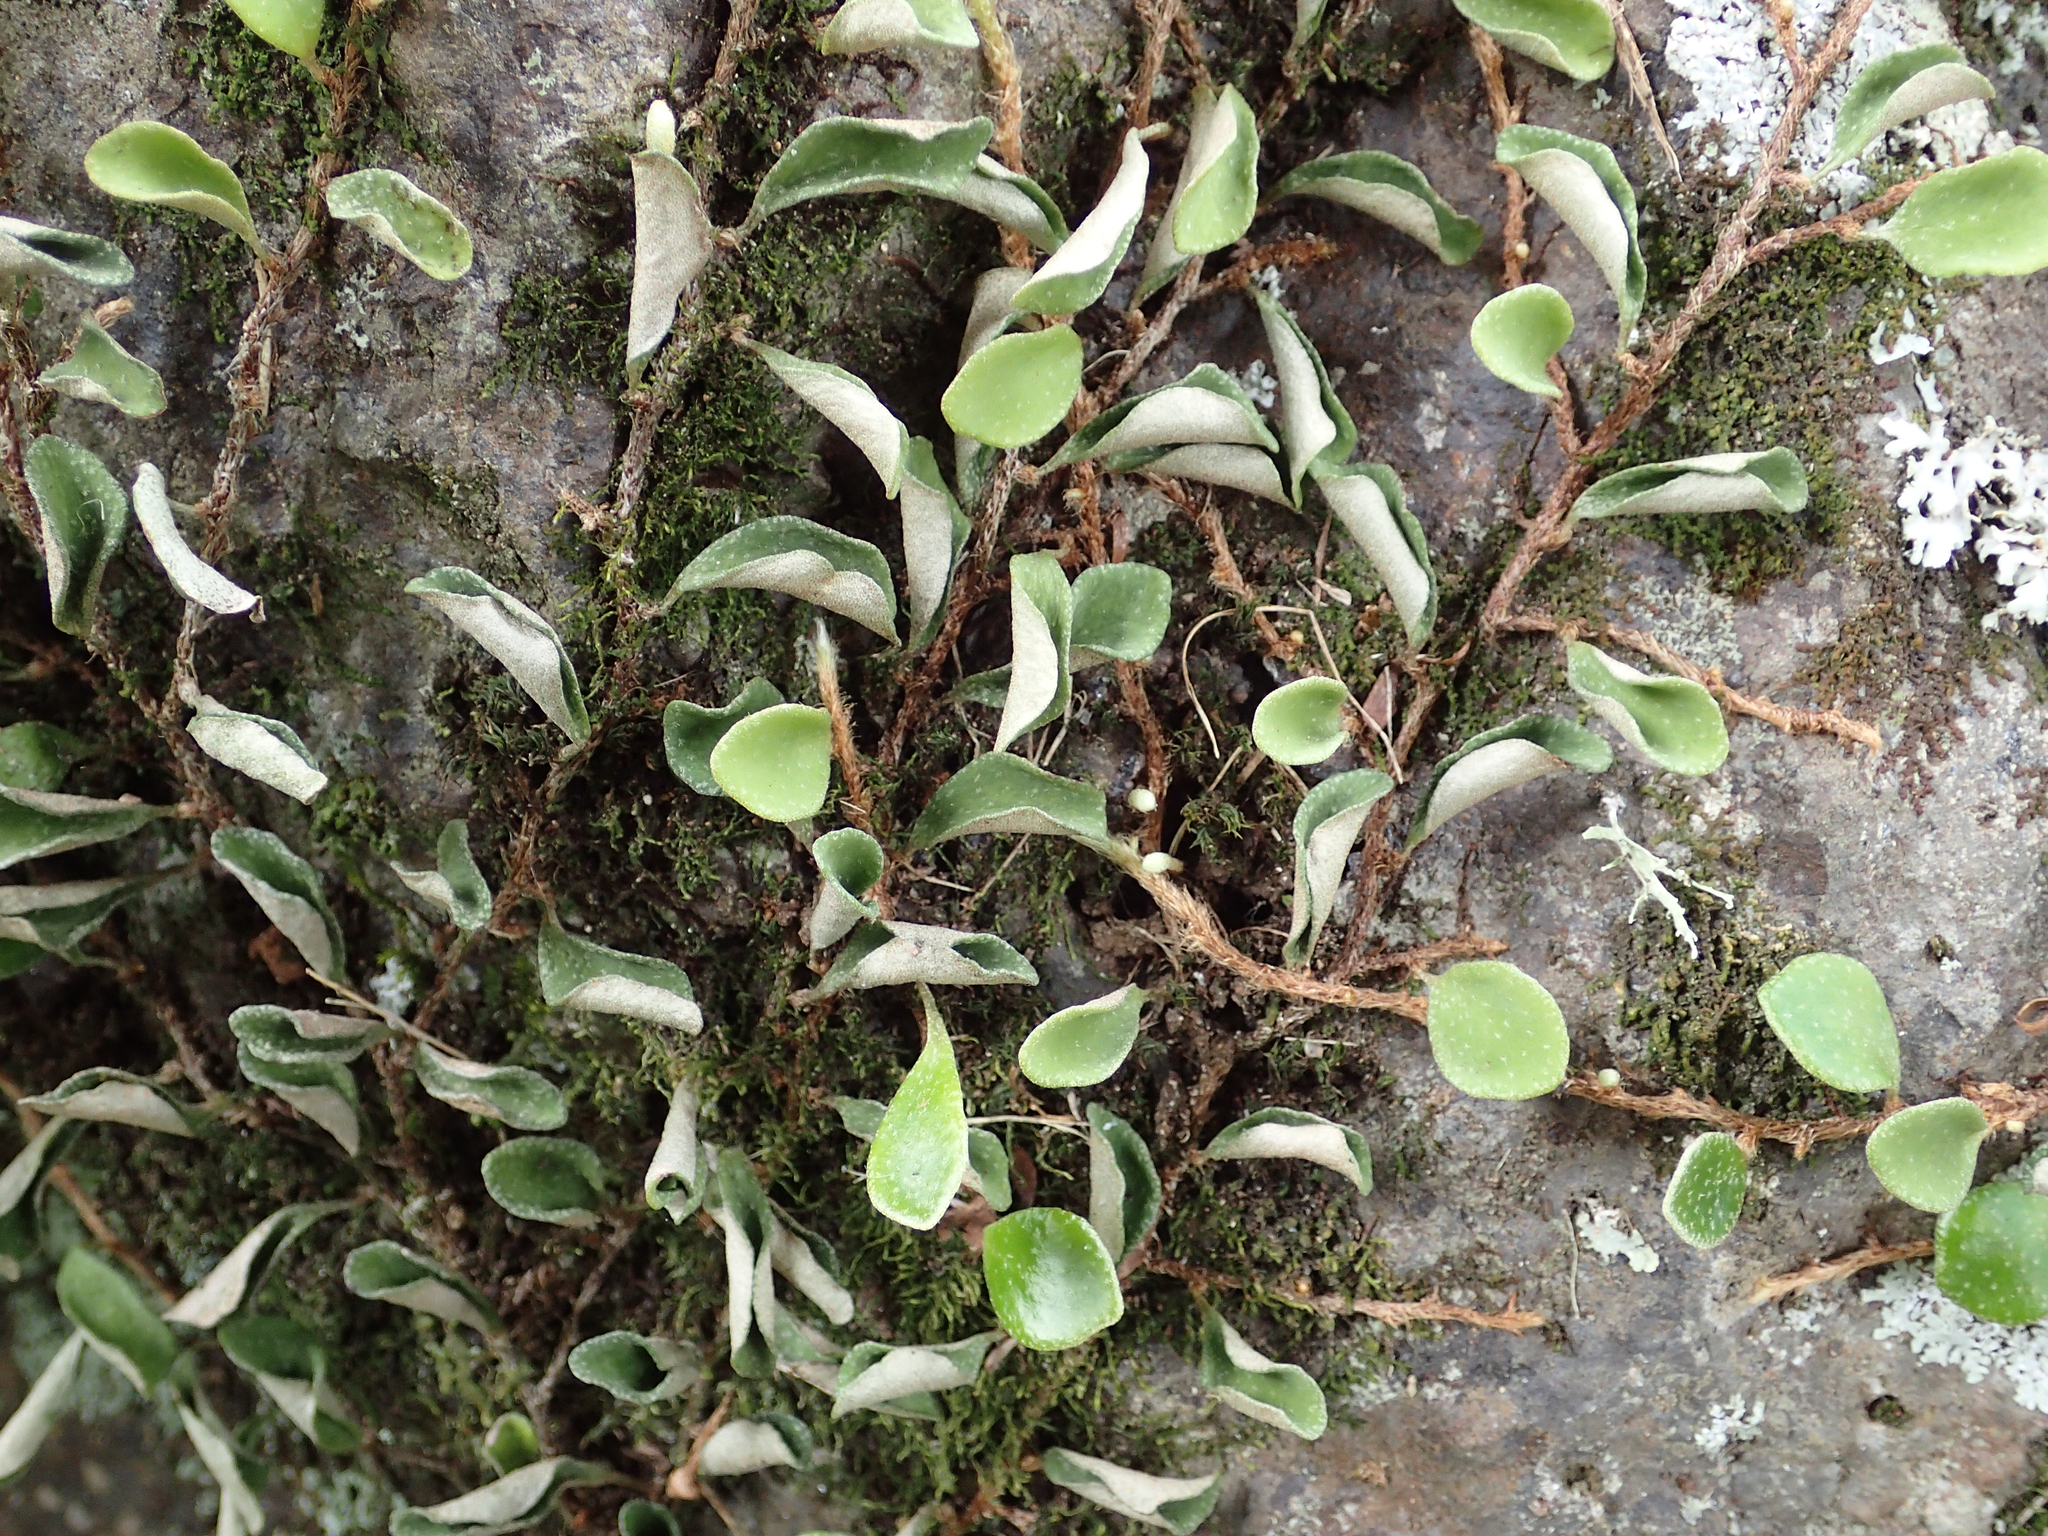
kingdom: Plantae
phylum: Tracheophyta
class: Polypodiopsida
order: Polypodiales
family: Polypodiaceae
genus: Pyrrosia
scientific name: Pyrrosia rupestris
